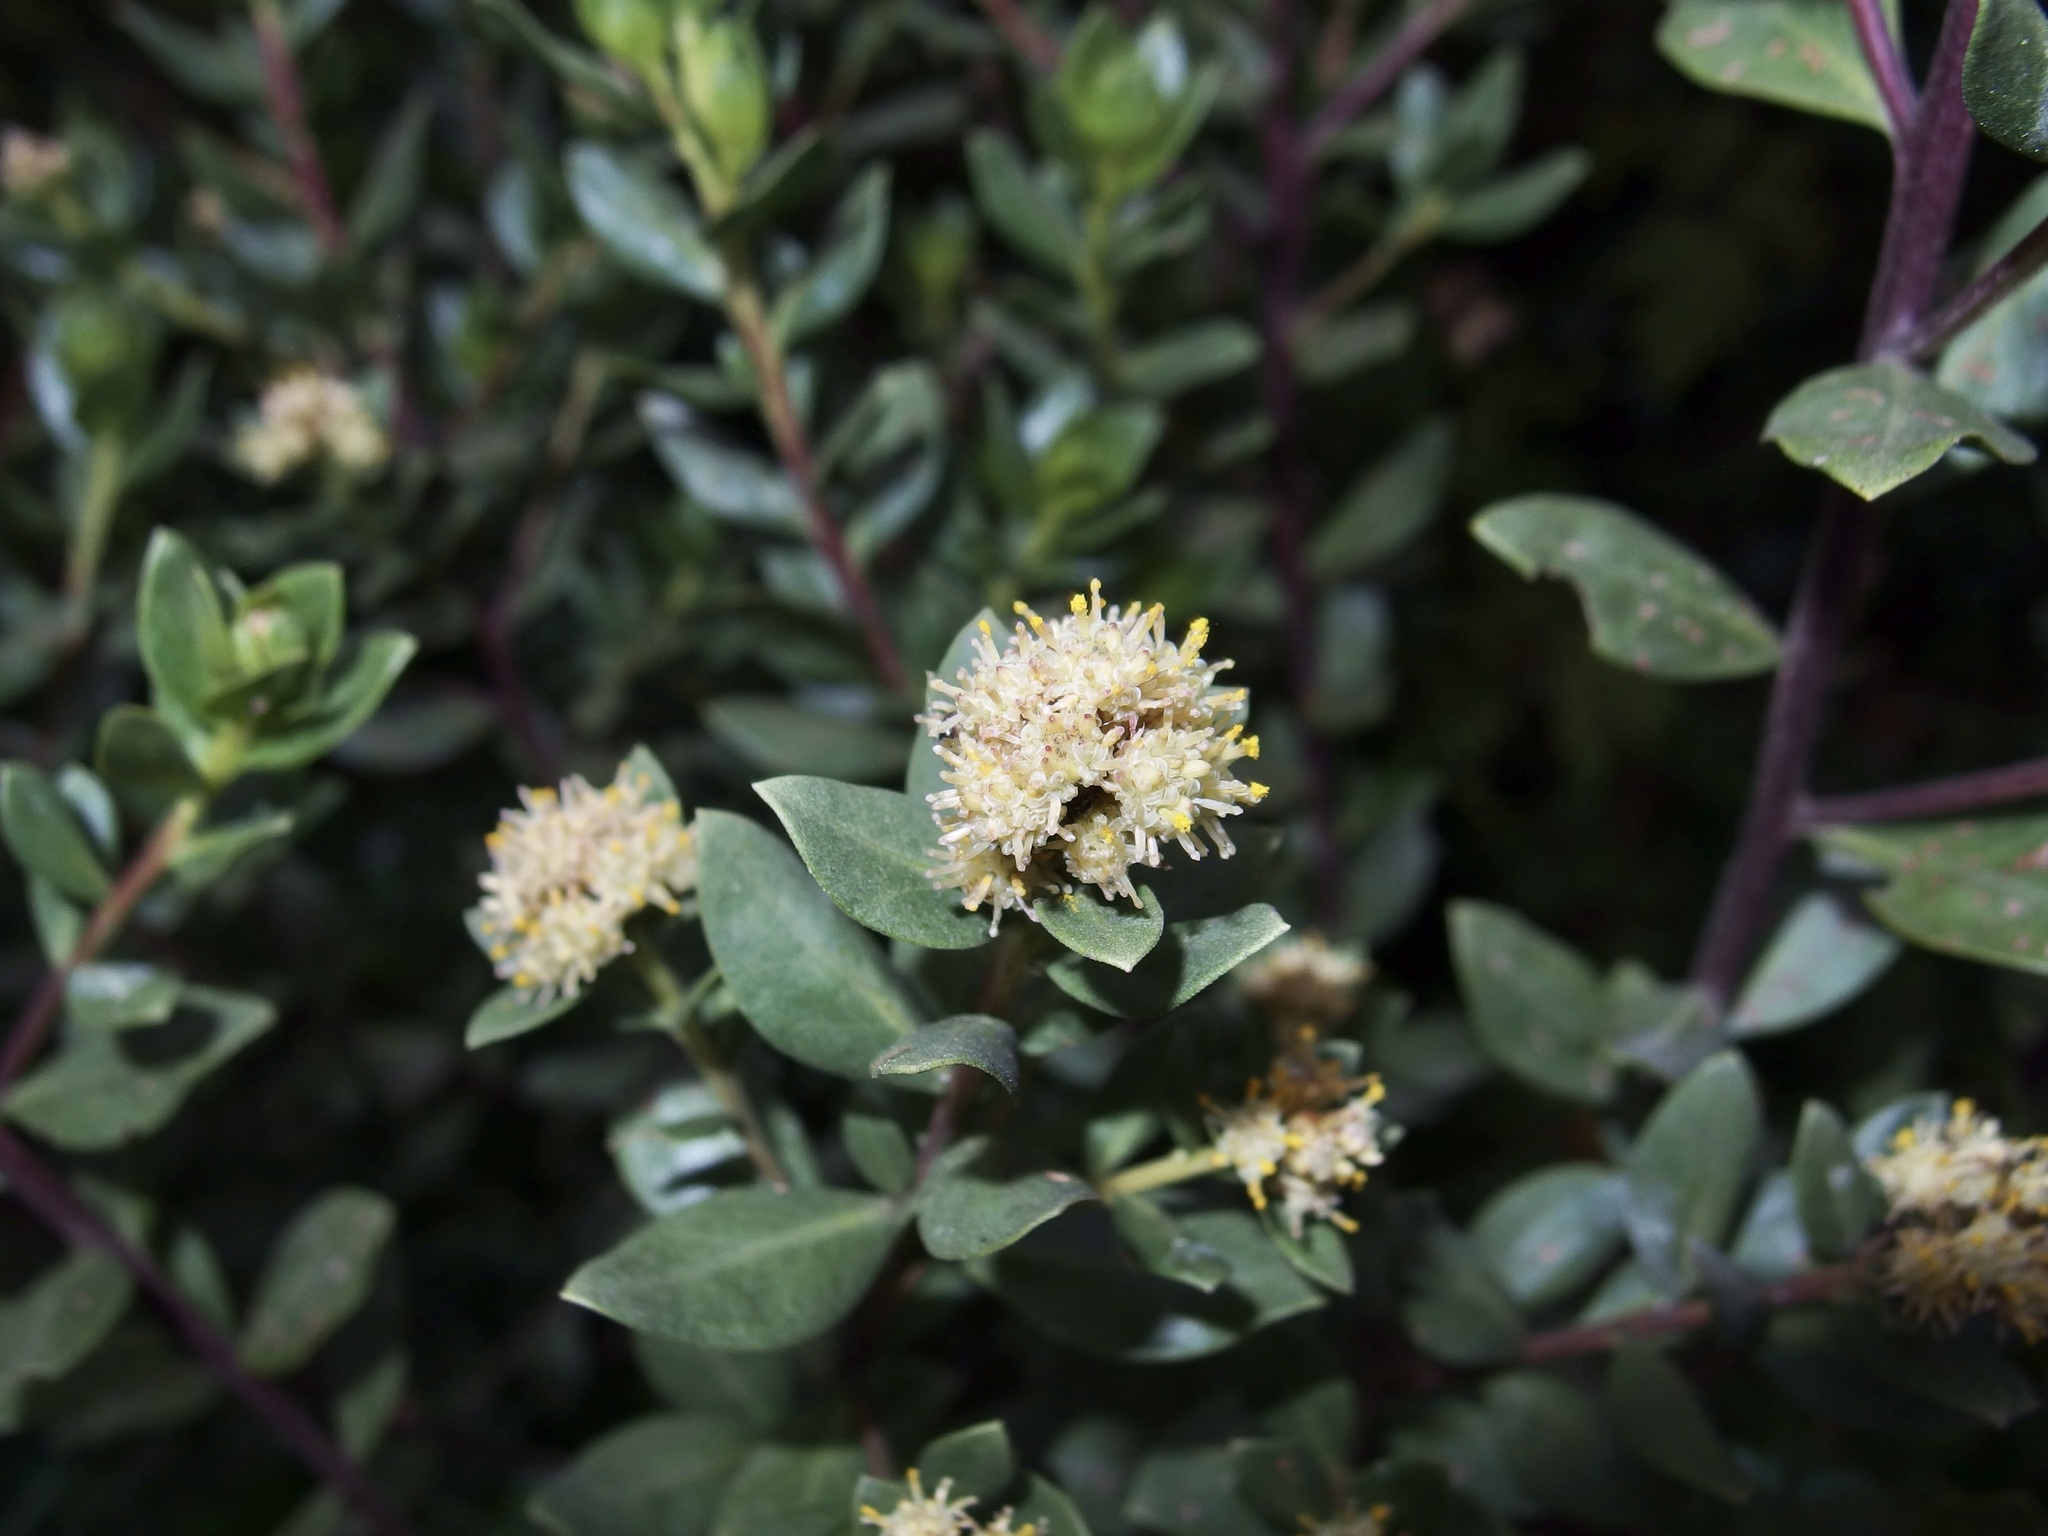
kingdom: Plantae
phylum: Tracheophyta
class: Magnoliopsida
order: Asterales
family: Asteraceae
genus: Baccharis
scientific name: Baccharis conferta
